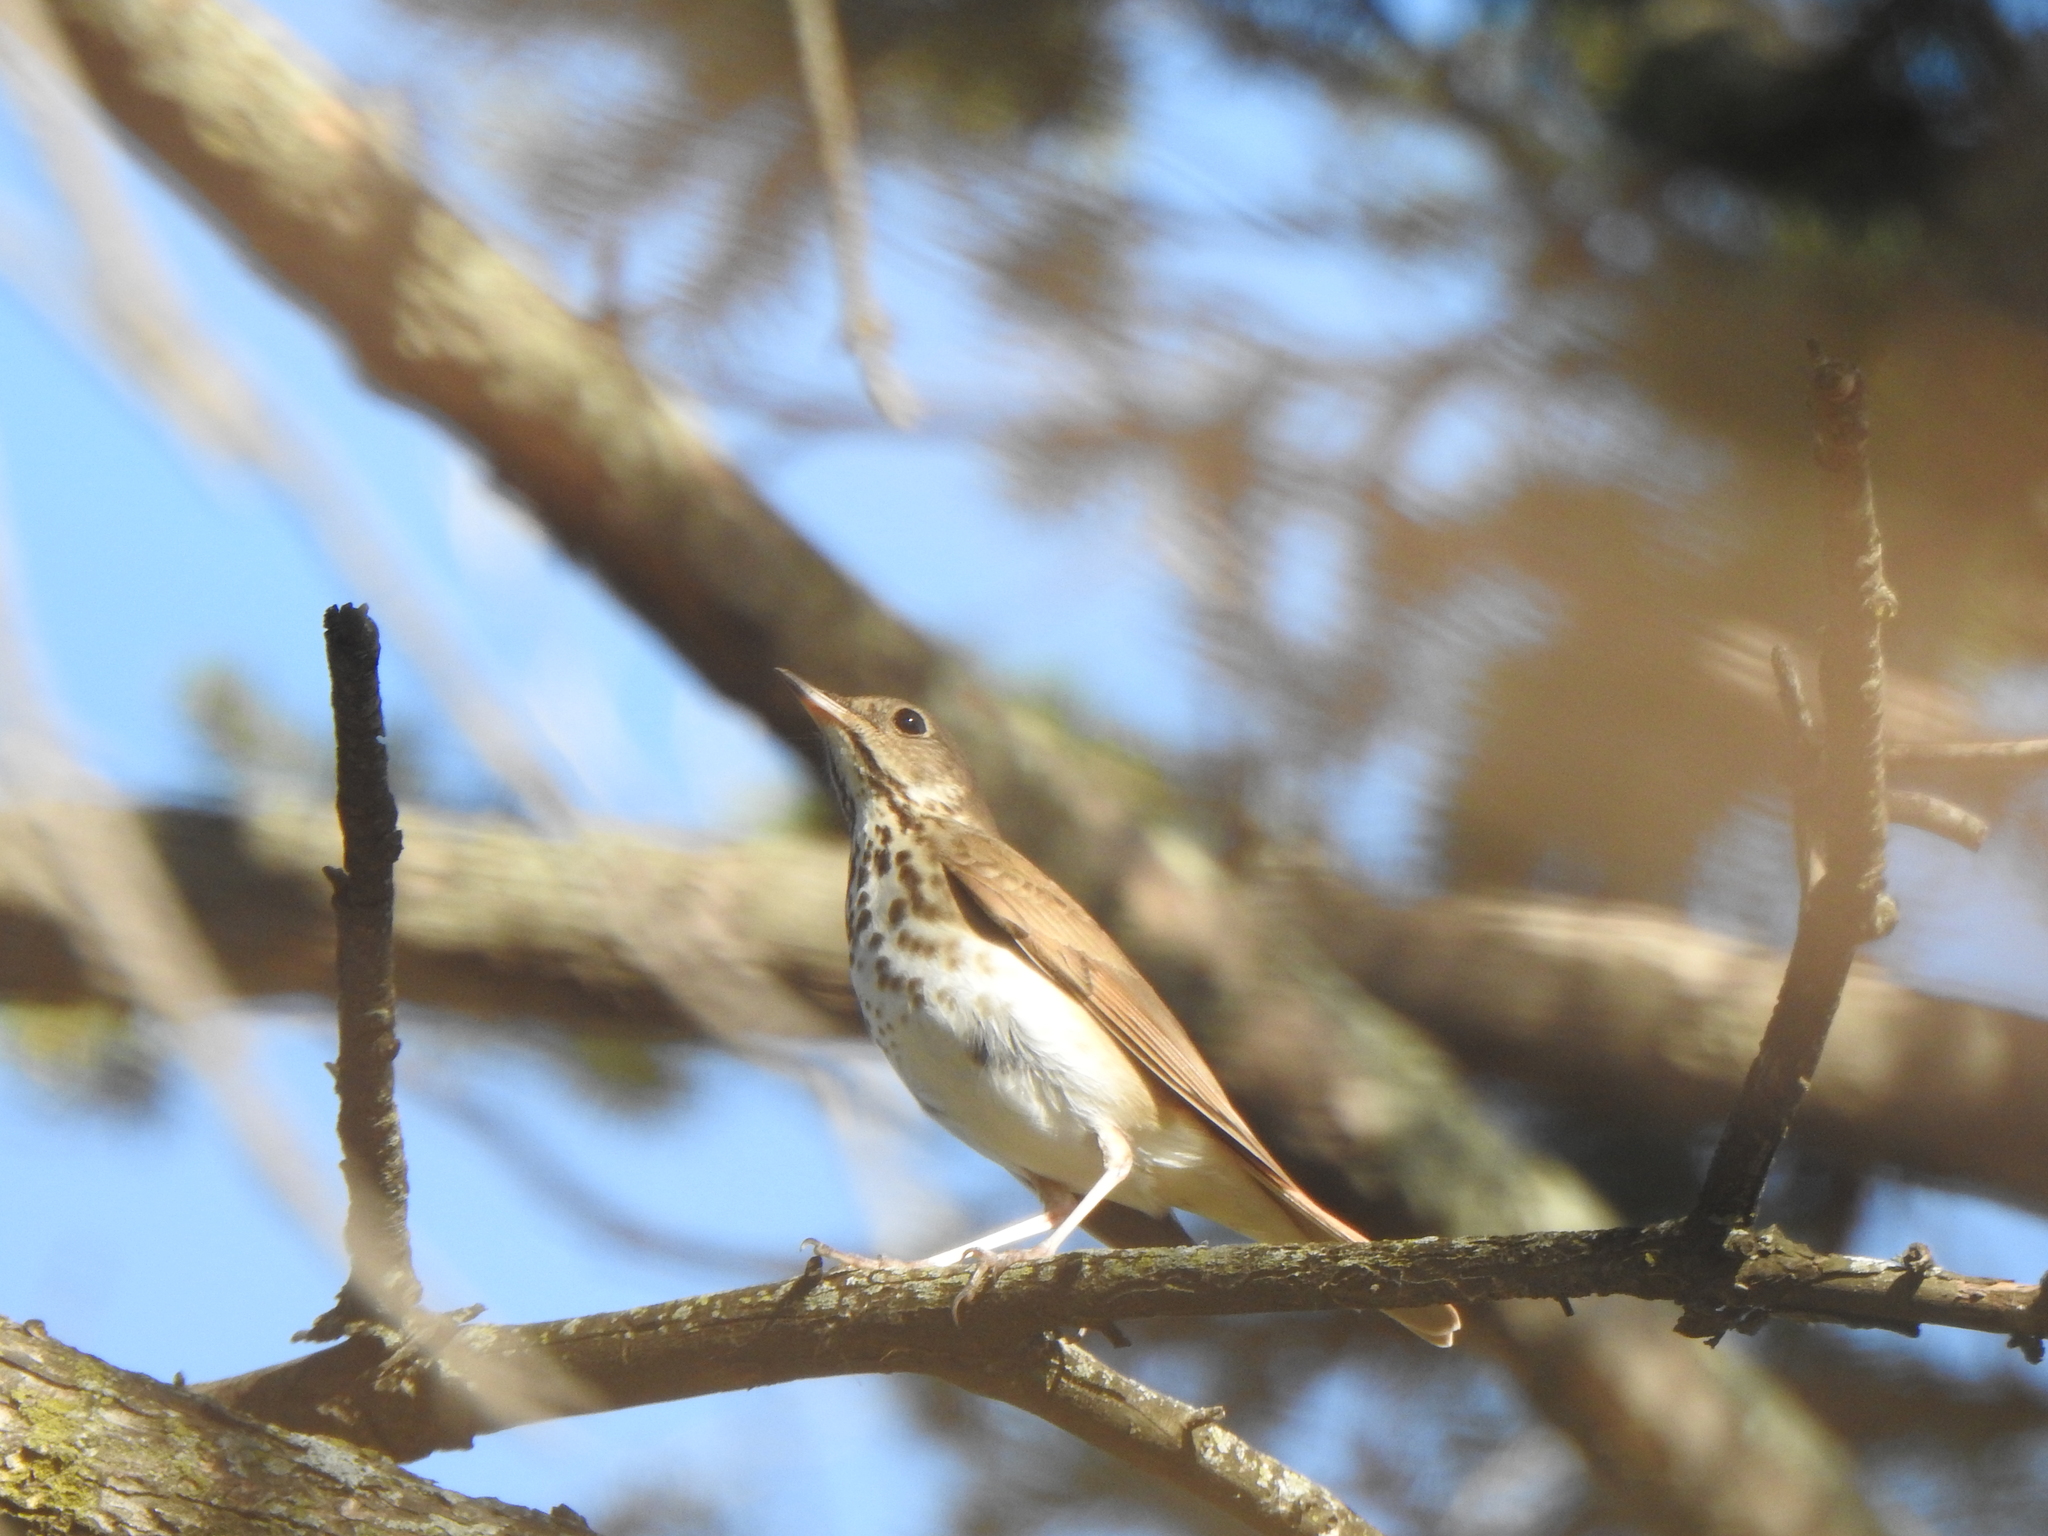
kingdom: Animalia
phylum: Chordata
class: Aves
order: Passeriformes
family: Turdidae
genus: Catharus
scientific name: Catharus guttatus
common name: Hermit thrush
